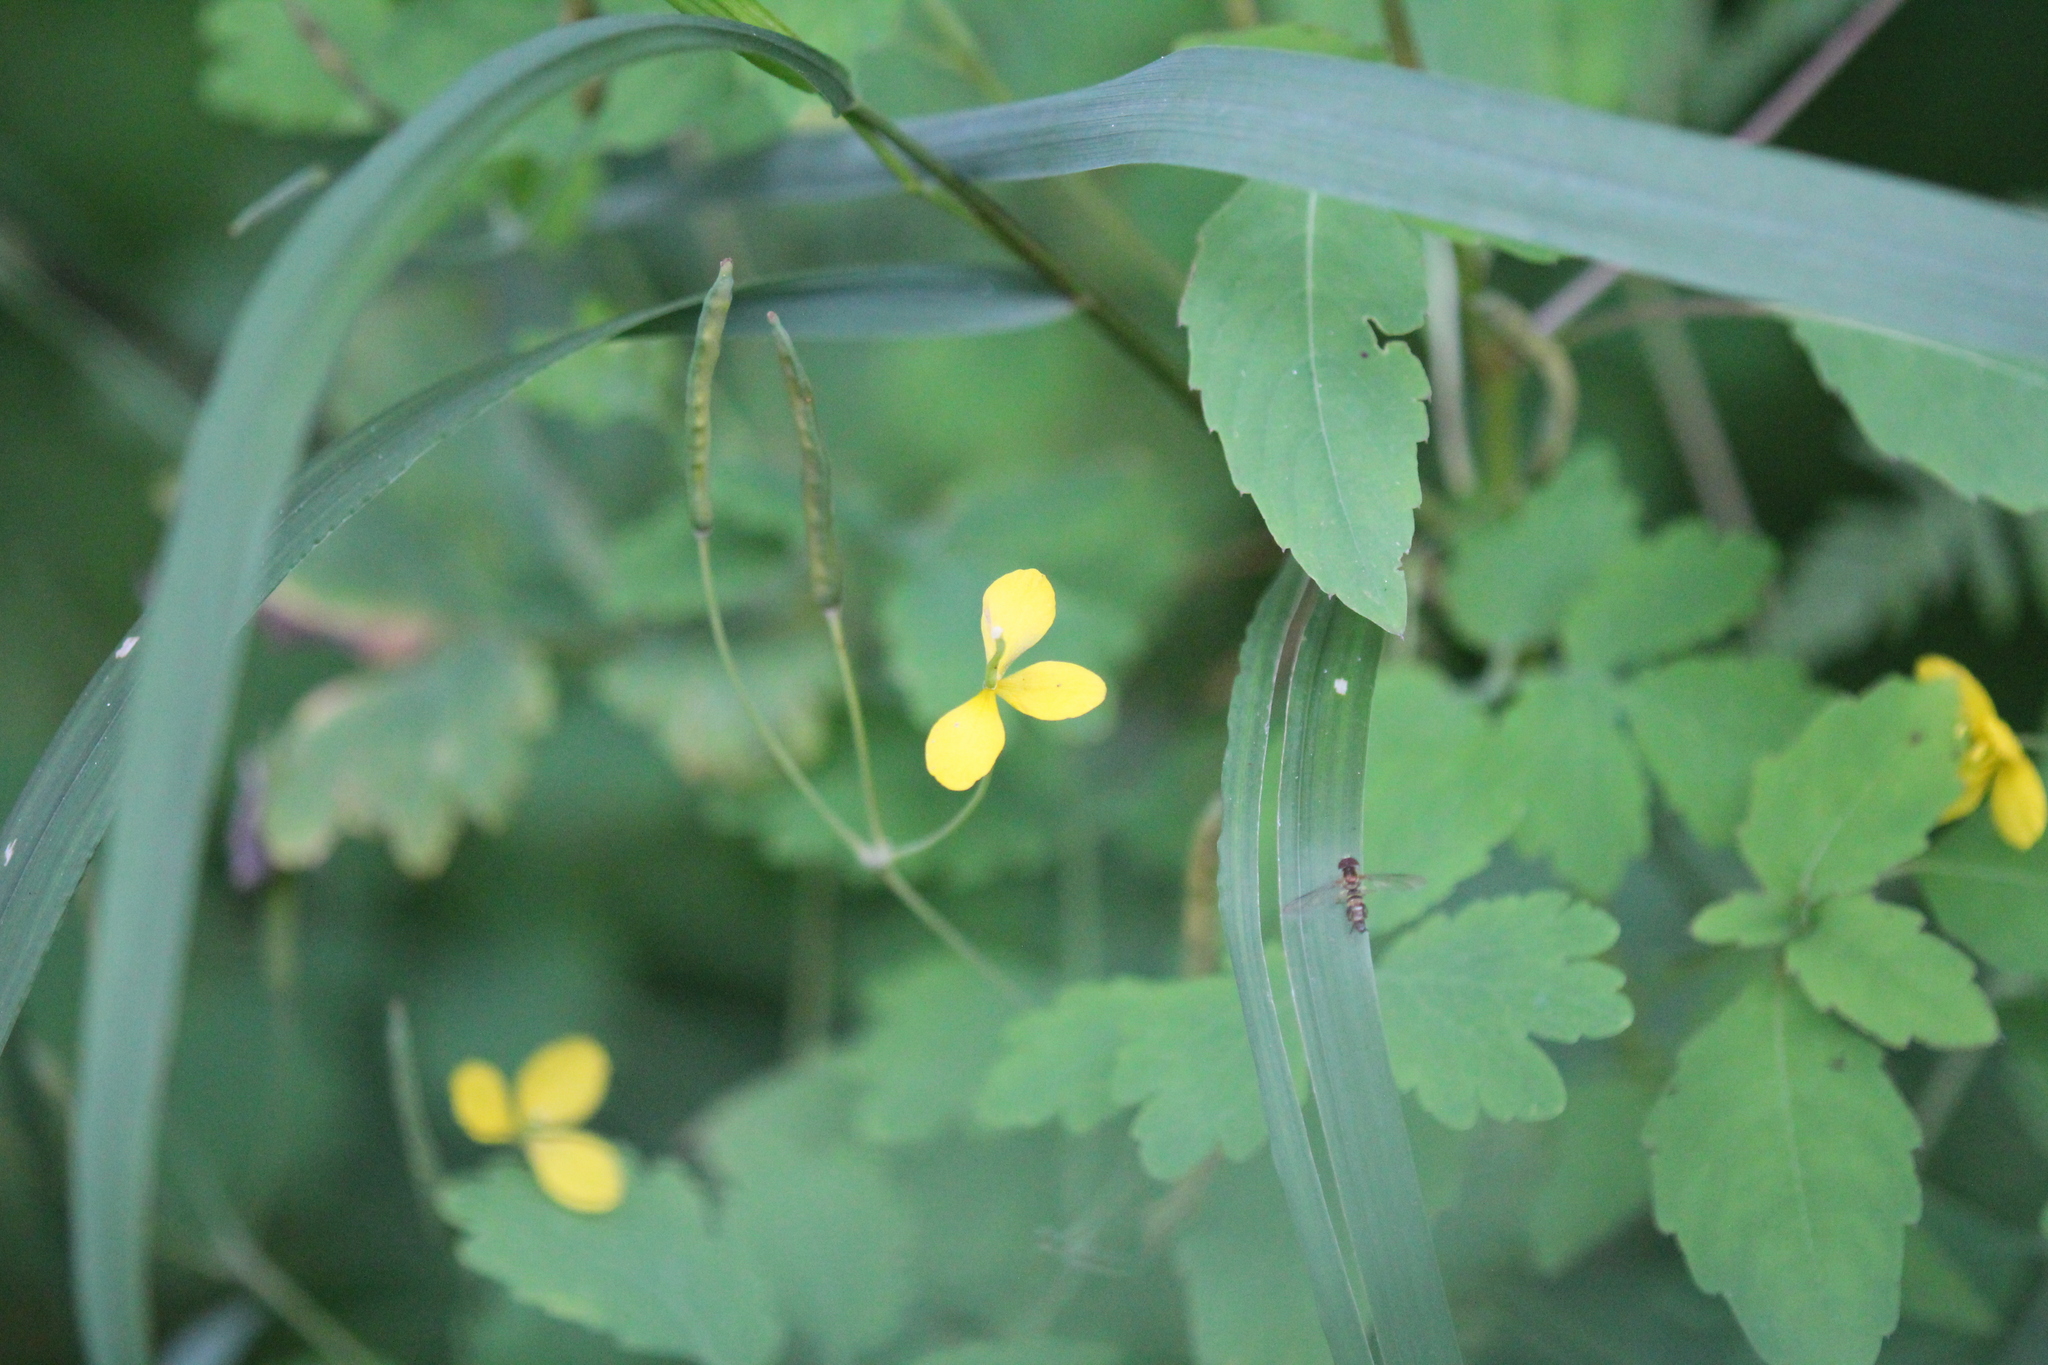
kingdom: Plantae
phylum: Tracheophyta
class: Magnoliopsida
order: Ranunculales
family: Papaveraceae
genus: Chelidonium
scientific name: Chelidonium majus
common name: Greater celandine
